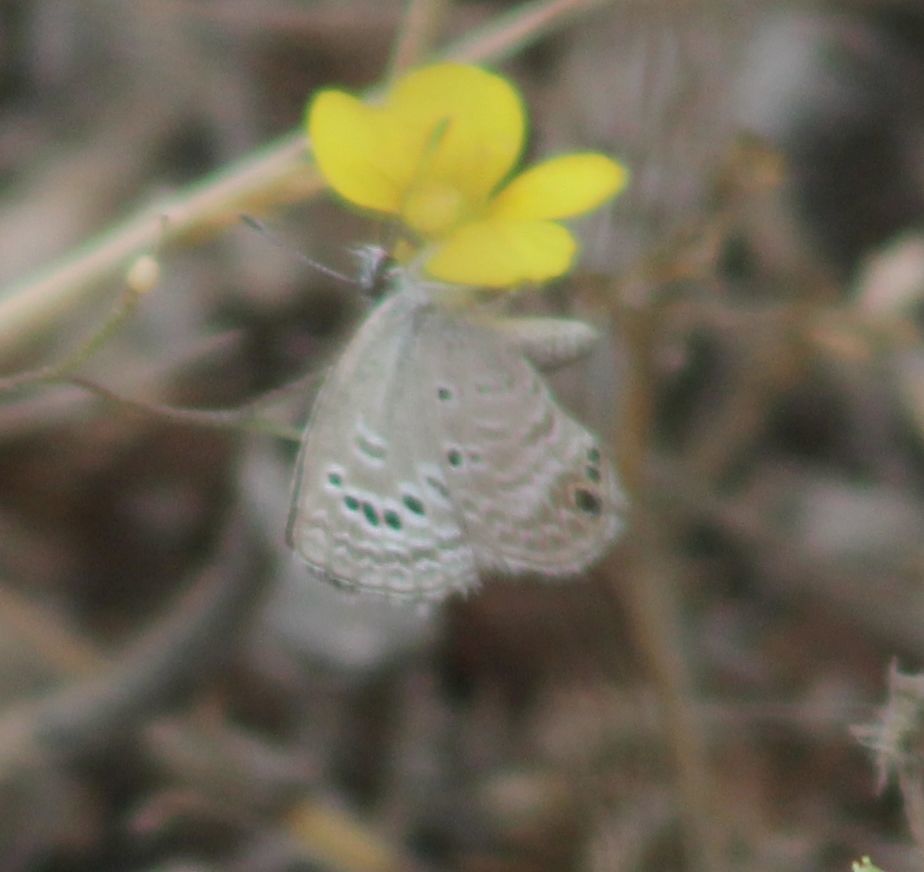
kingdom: Animalia
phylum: Arthropoda
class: Insecta
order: Lepidoptera
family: Lycaenidae
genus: Echinargus
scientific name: Echinargus isola
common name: Reakirt's blue
